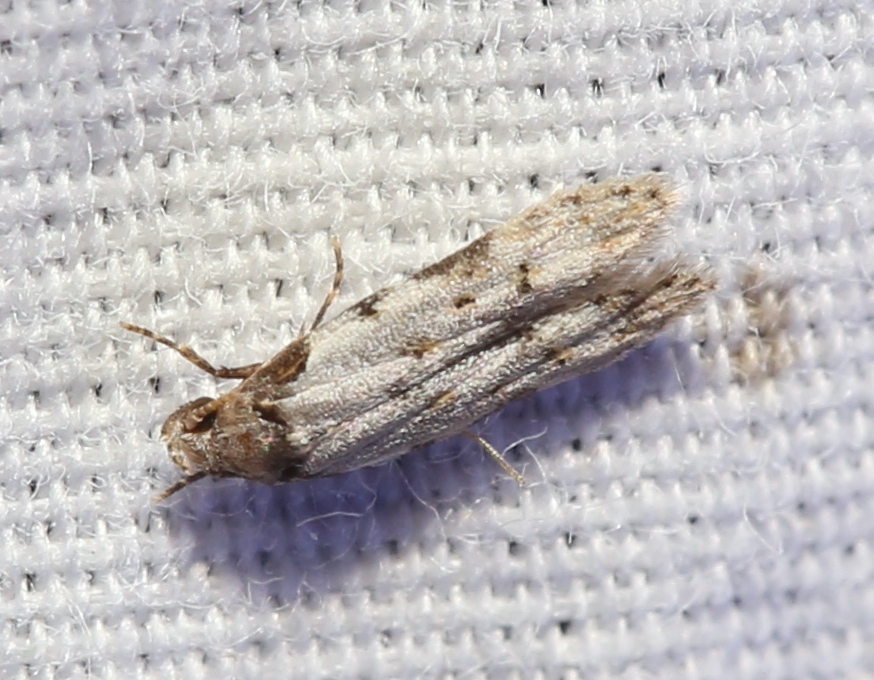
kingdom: Animalia
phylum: Arthropoda
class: Insecta
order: Lepidoptera
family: Autostichidae
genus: Taygete
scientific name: Taygete attributella
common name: Triangle-marked twirler moth
